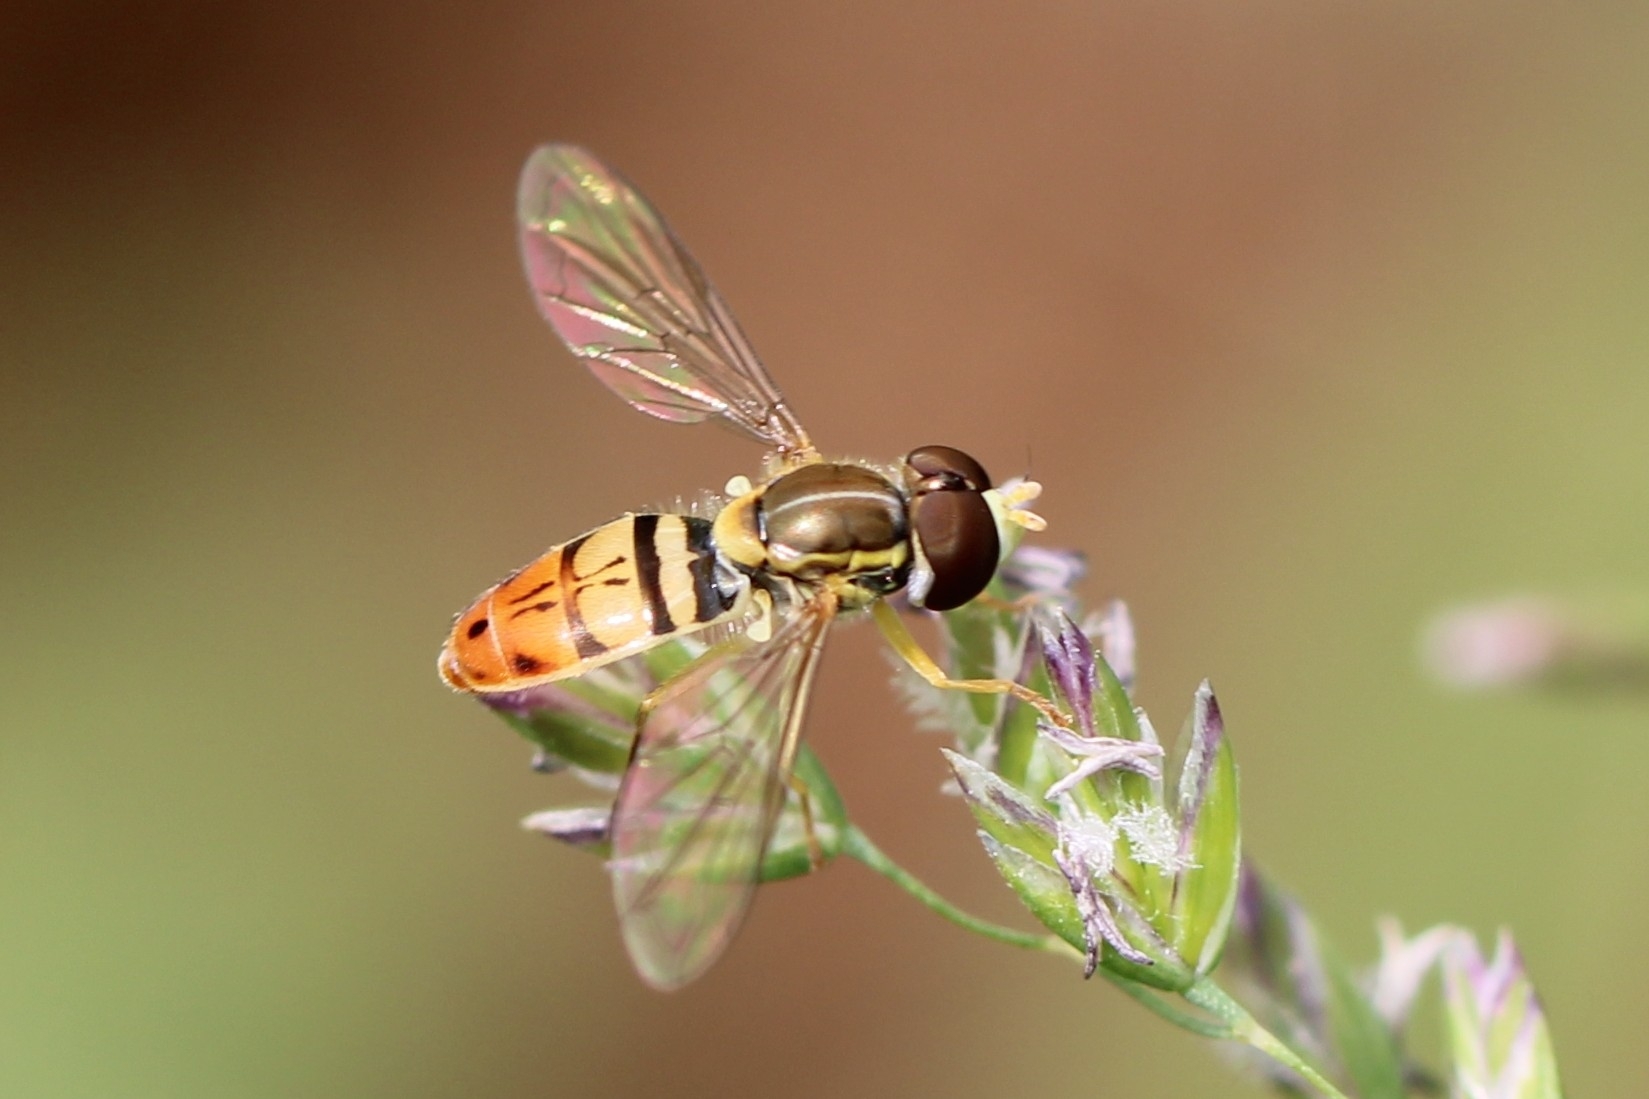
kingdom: Animalia
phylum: Arthropoda
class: Insecta
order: Diptera
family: Syrphidae
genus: Toxomerus
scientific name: Toxomerus marginatus
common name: Syrphid fly
